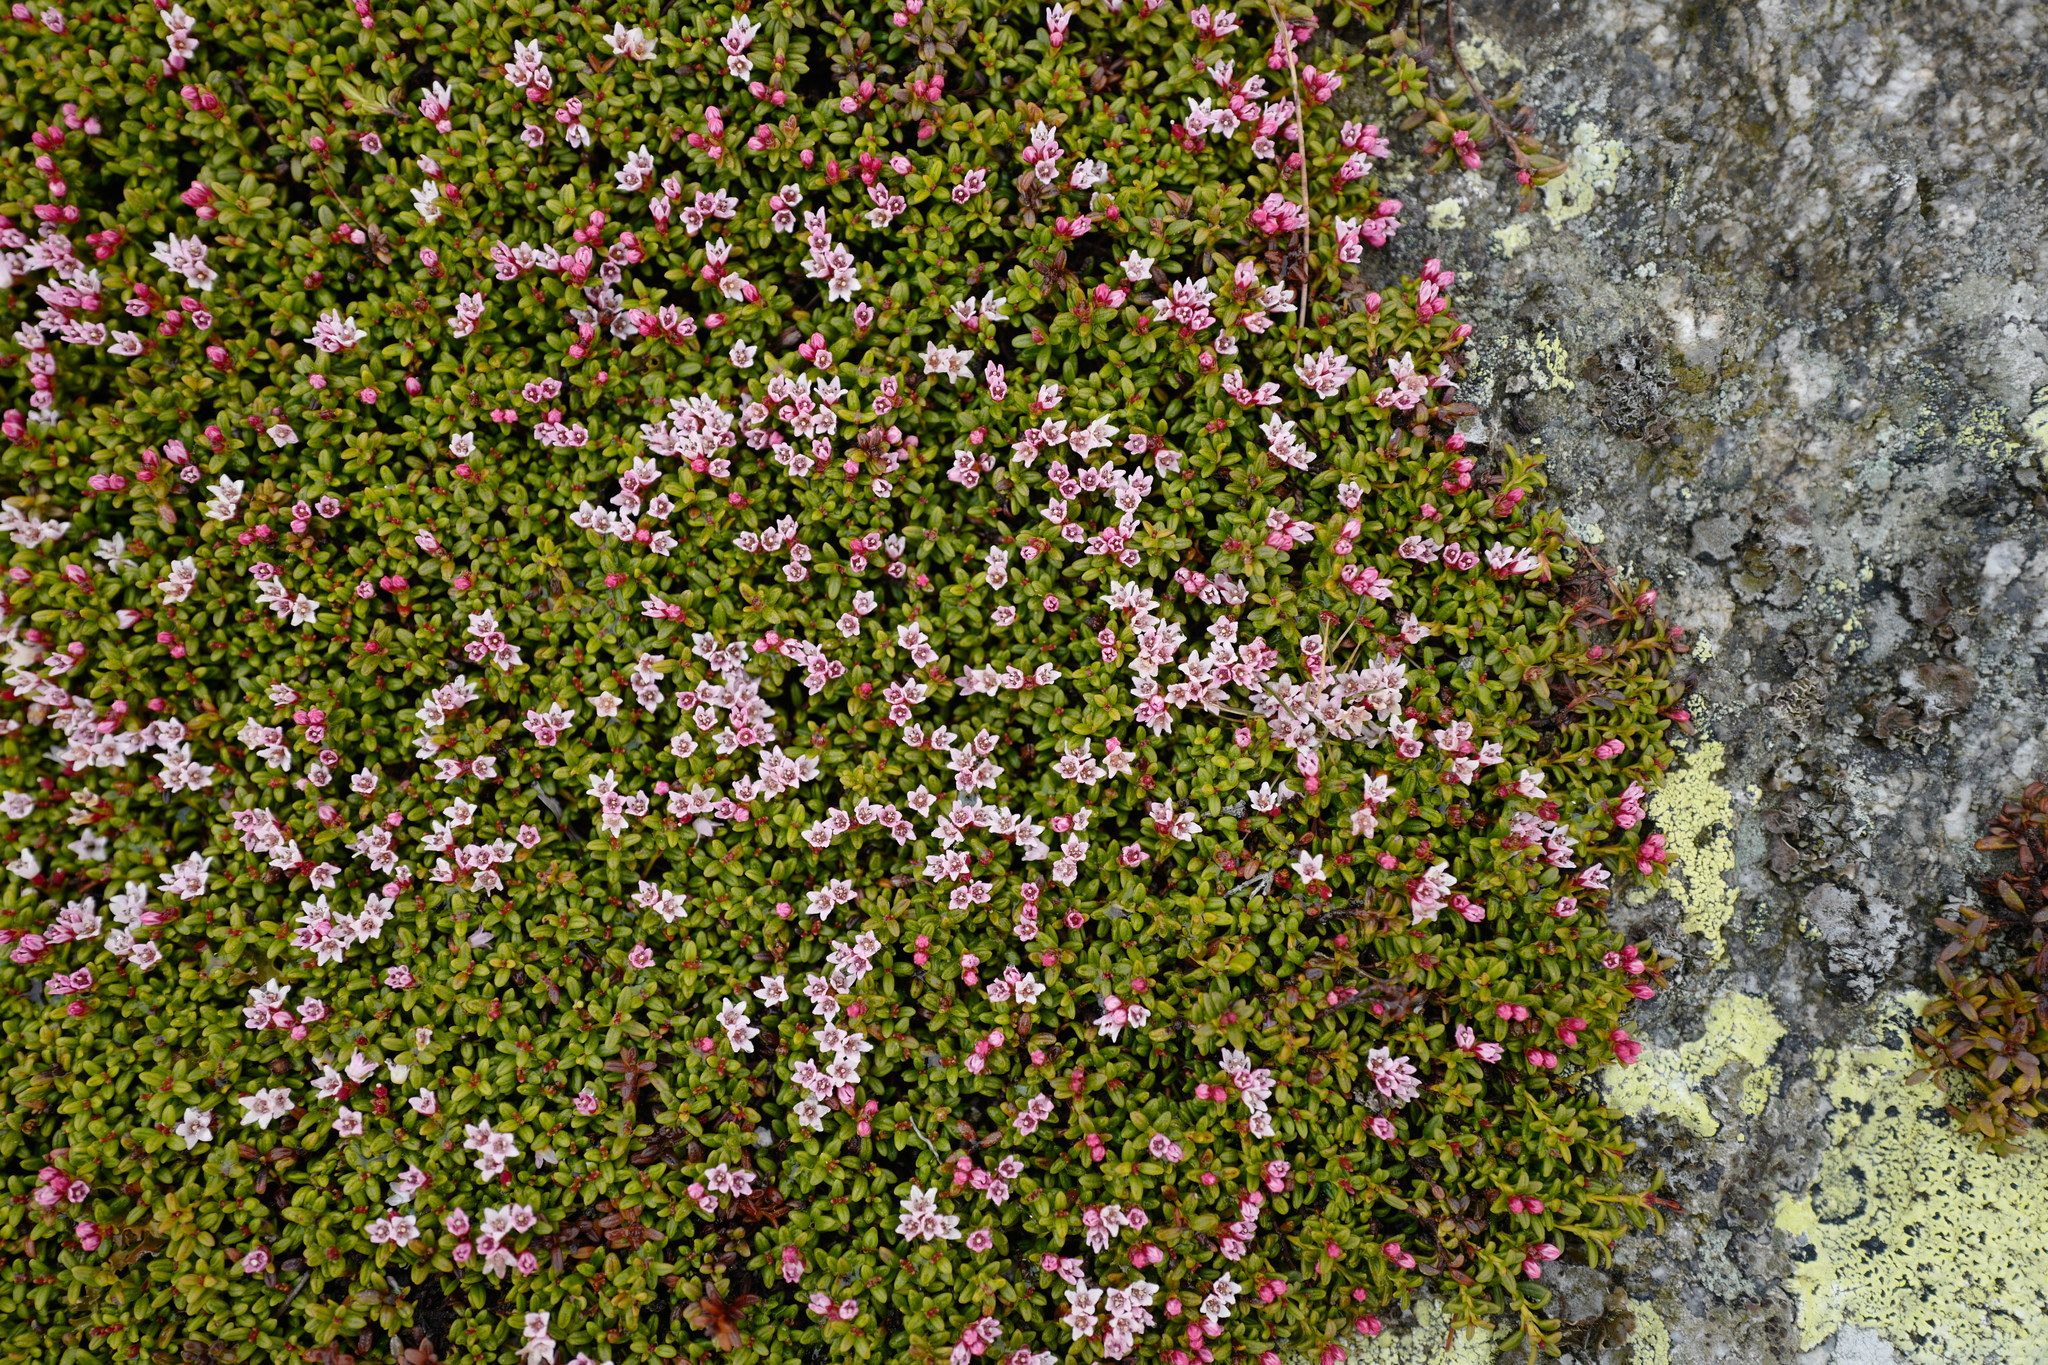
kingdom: Plantae
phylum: Tracheophyta
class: Magnoliopsida
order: Ericales
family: Ericaceae
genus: Kalmia
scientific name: Kalmia procumbens
